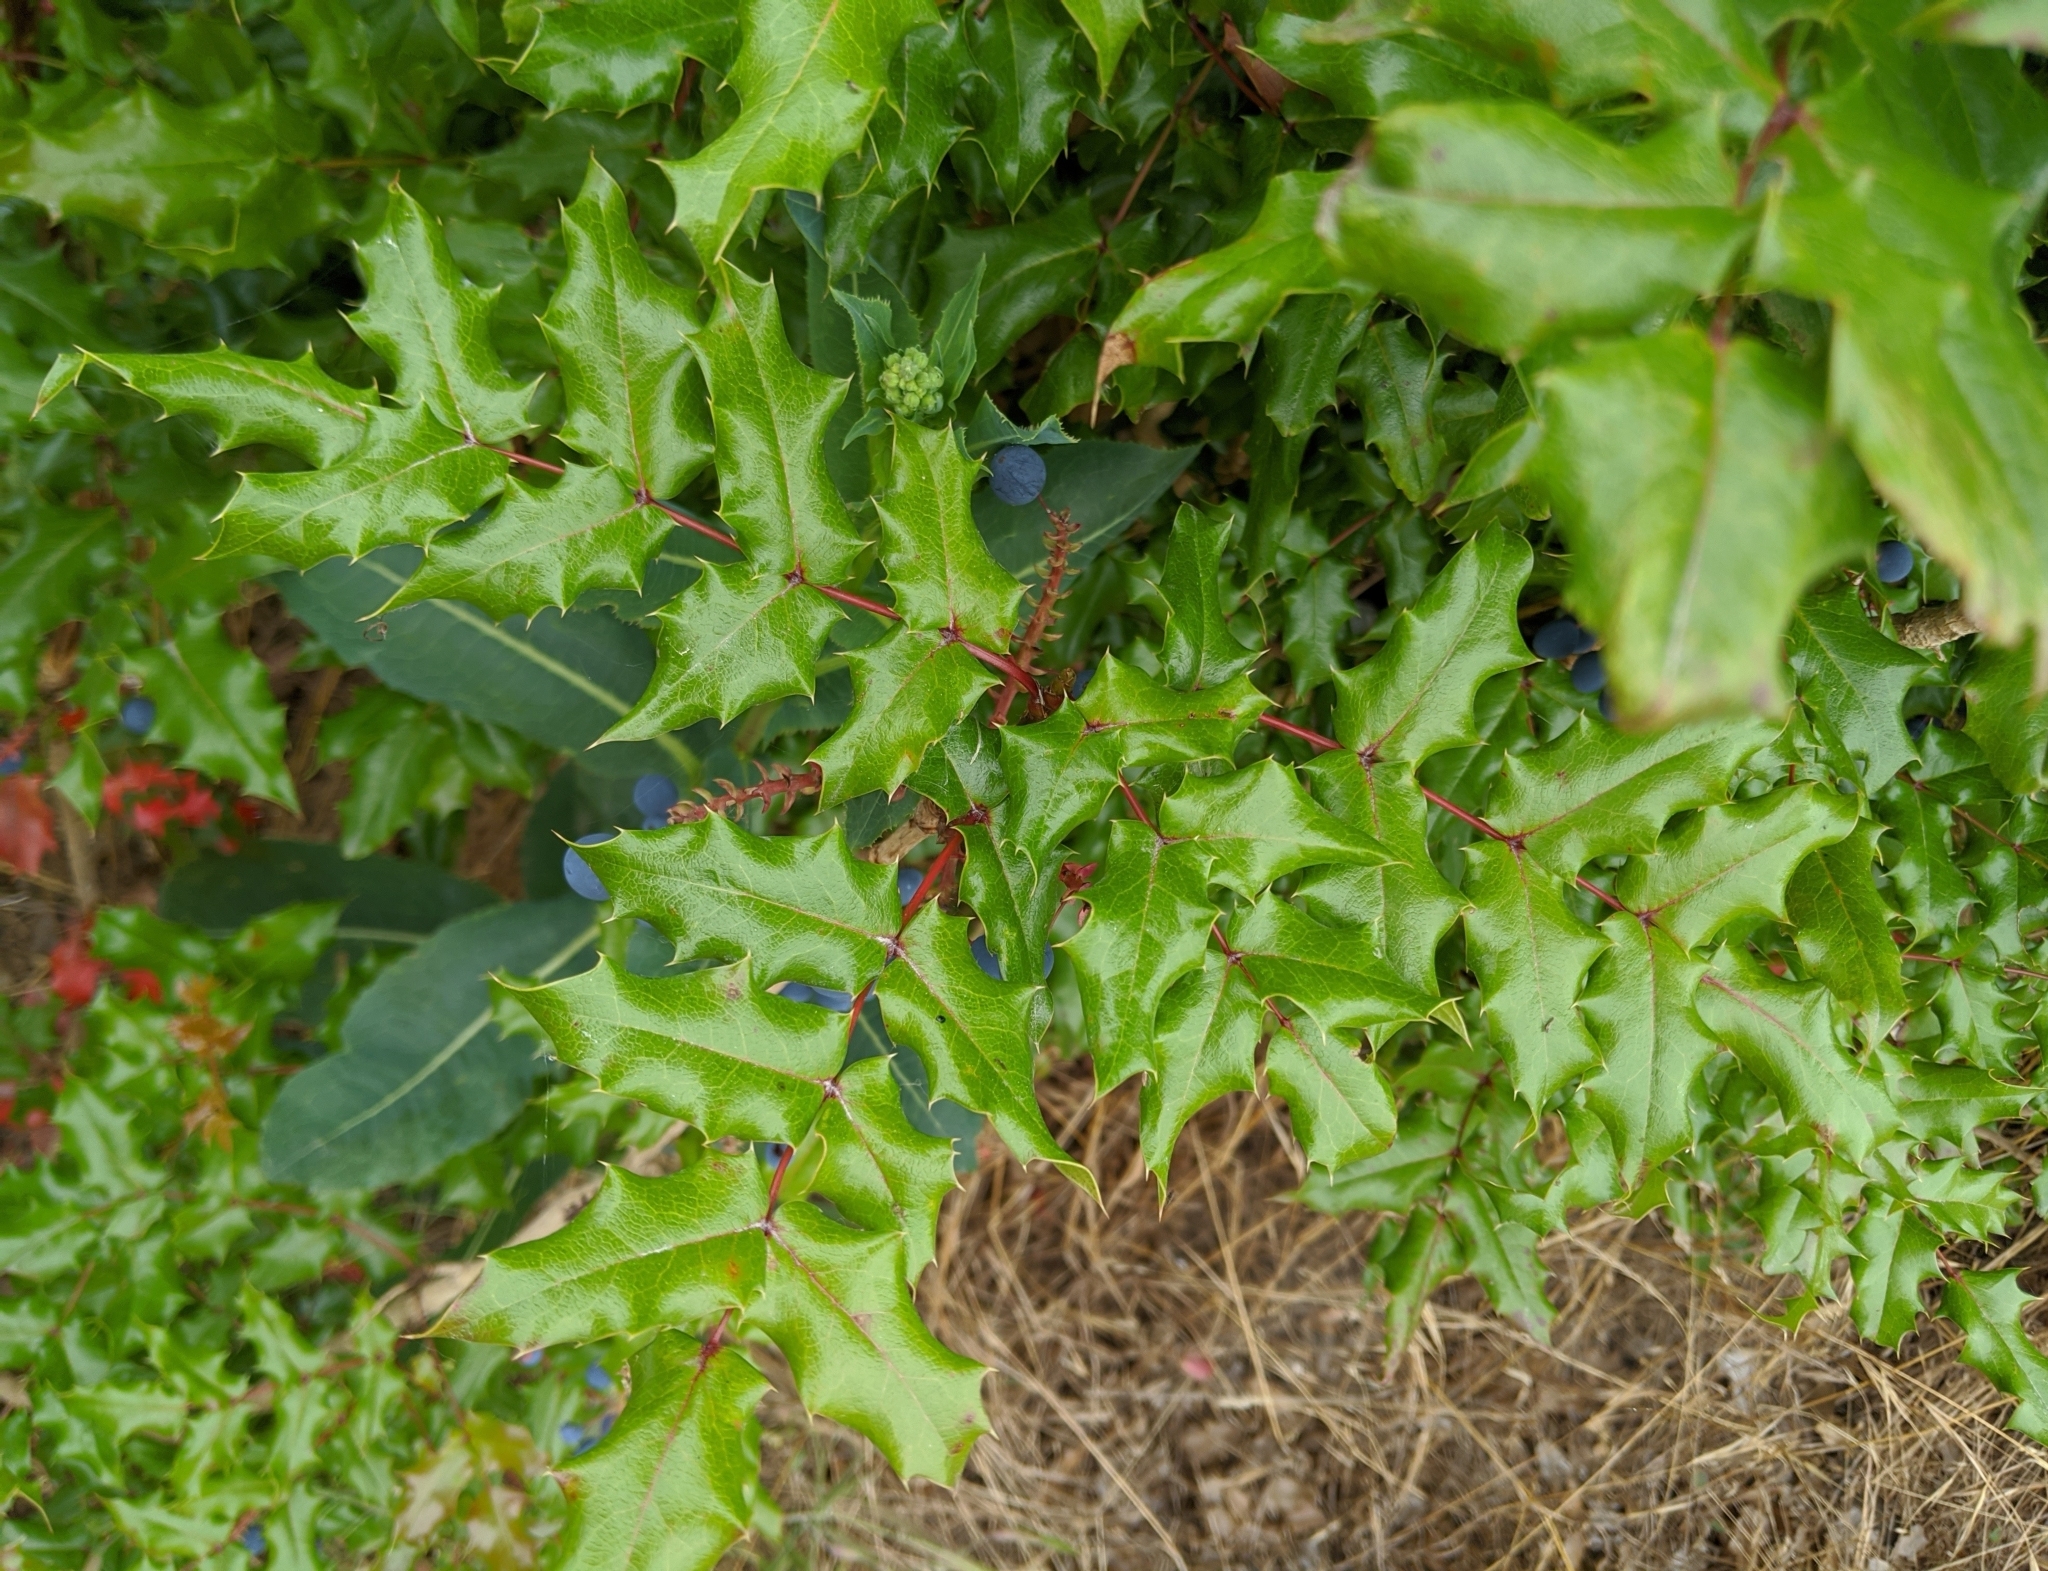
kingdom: Plantae
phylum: Tracheophyta
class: Magnoliopsida
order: Ranunculales
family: Berberidaceae
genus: Mahonia
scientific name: Mahonia aquifolium
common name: Oregon-grape
